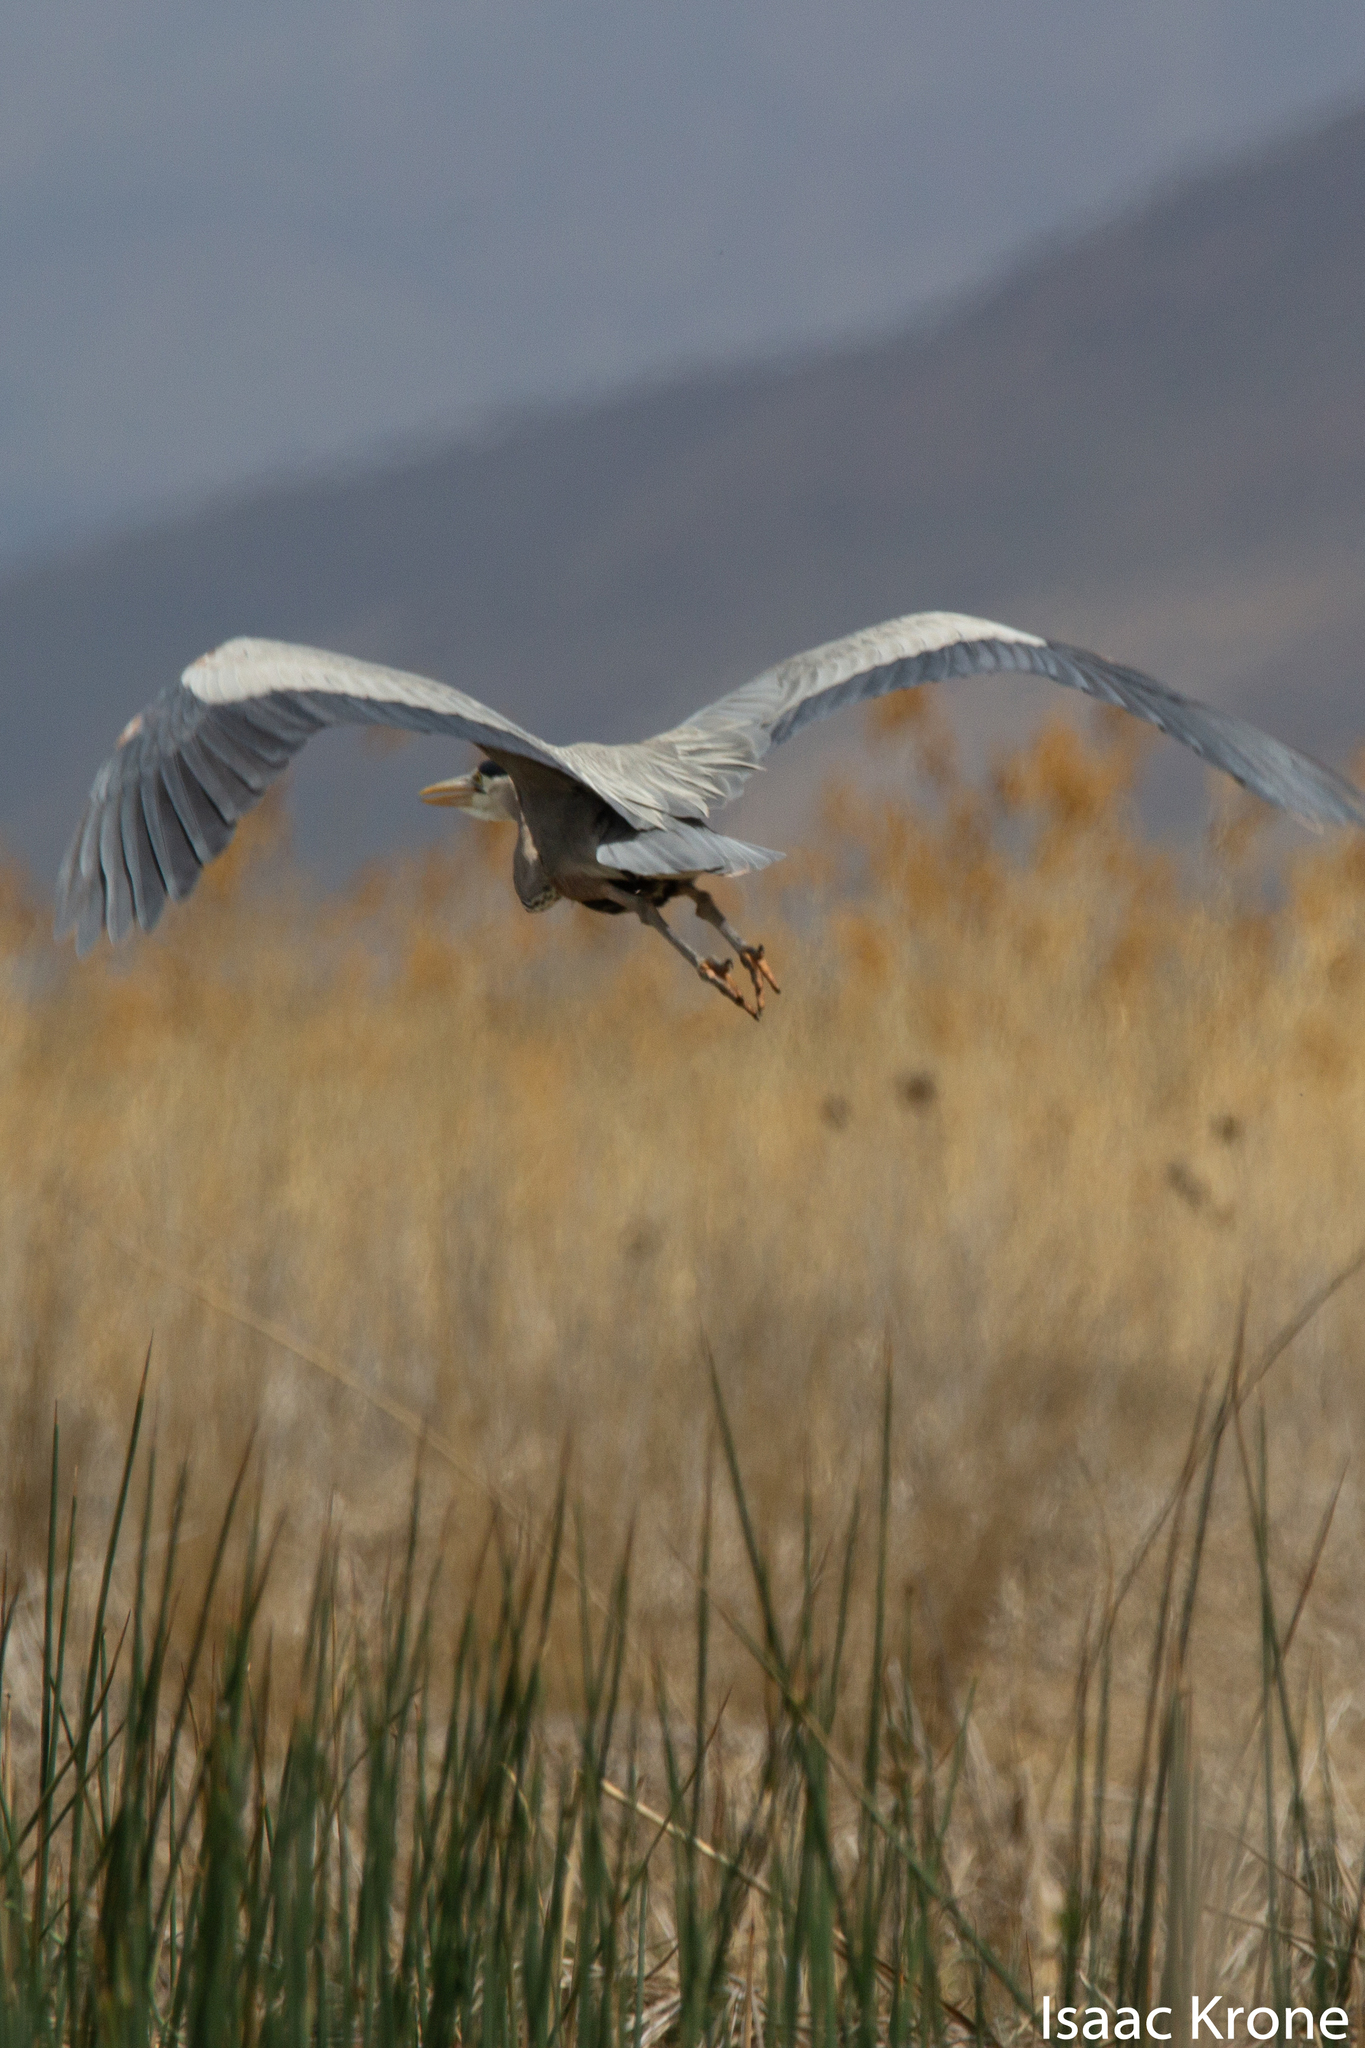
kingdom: Animalia
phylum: Chordata
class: Aves
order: Pelecaniformes
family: Ardeidae
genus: Ardea
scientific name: Ardea herodias
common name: Great blue heron
